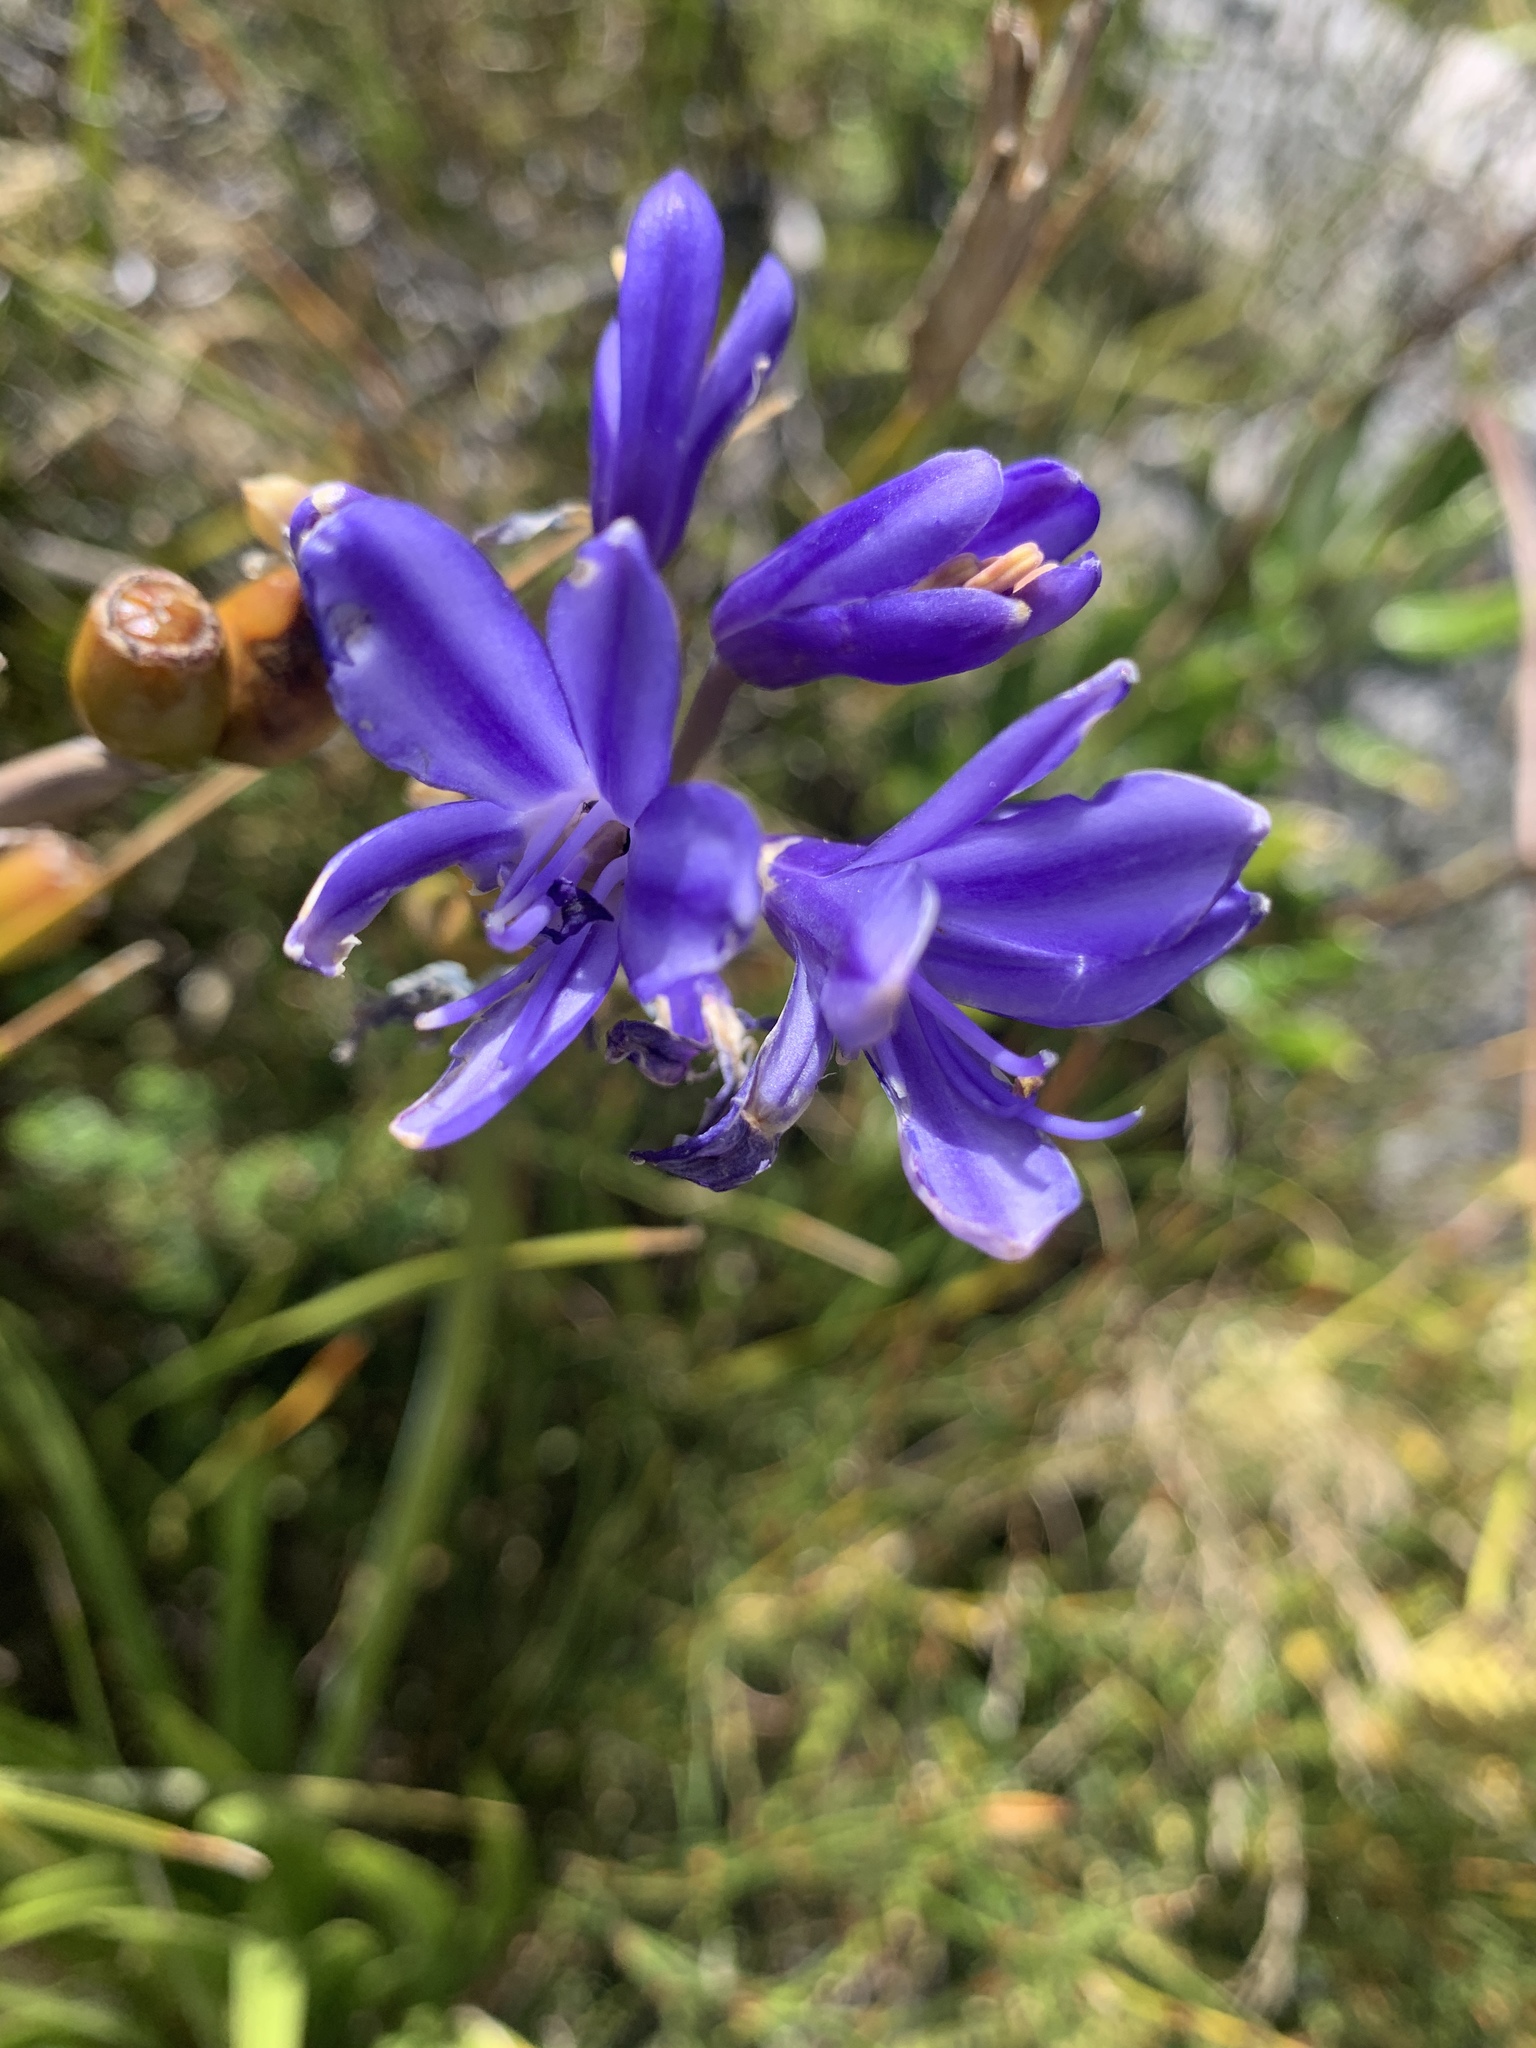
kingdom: Plantae
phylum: Tracheophyta
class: Liliopsida
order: Asparagales
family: Amaryllidaceae
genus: Agapanthus
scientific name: Agapanthus africanus
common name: Lily-of-the-nile
